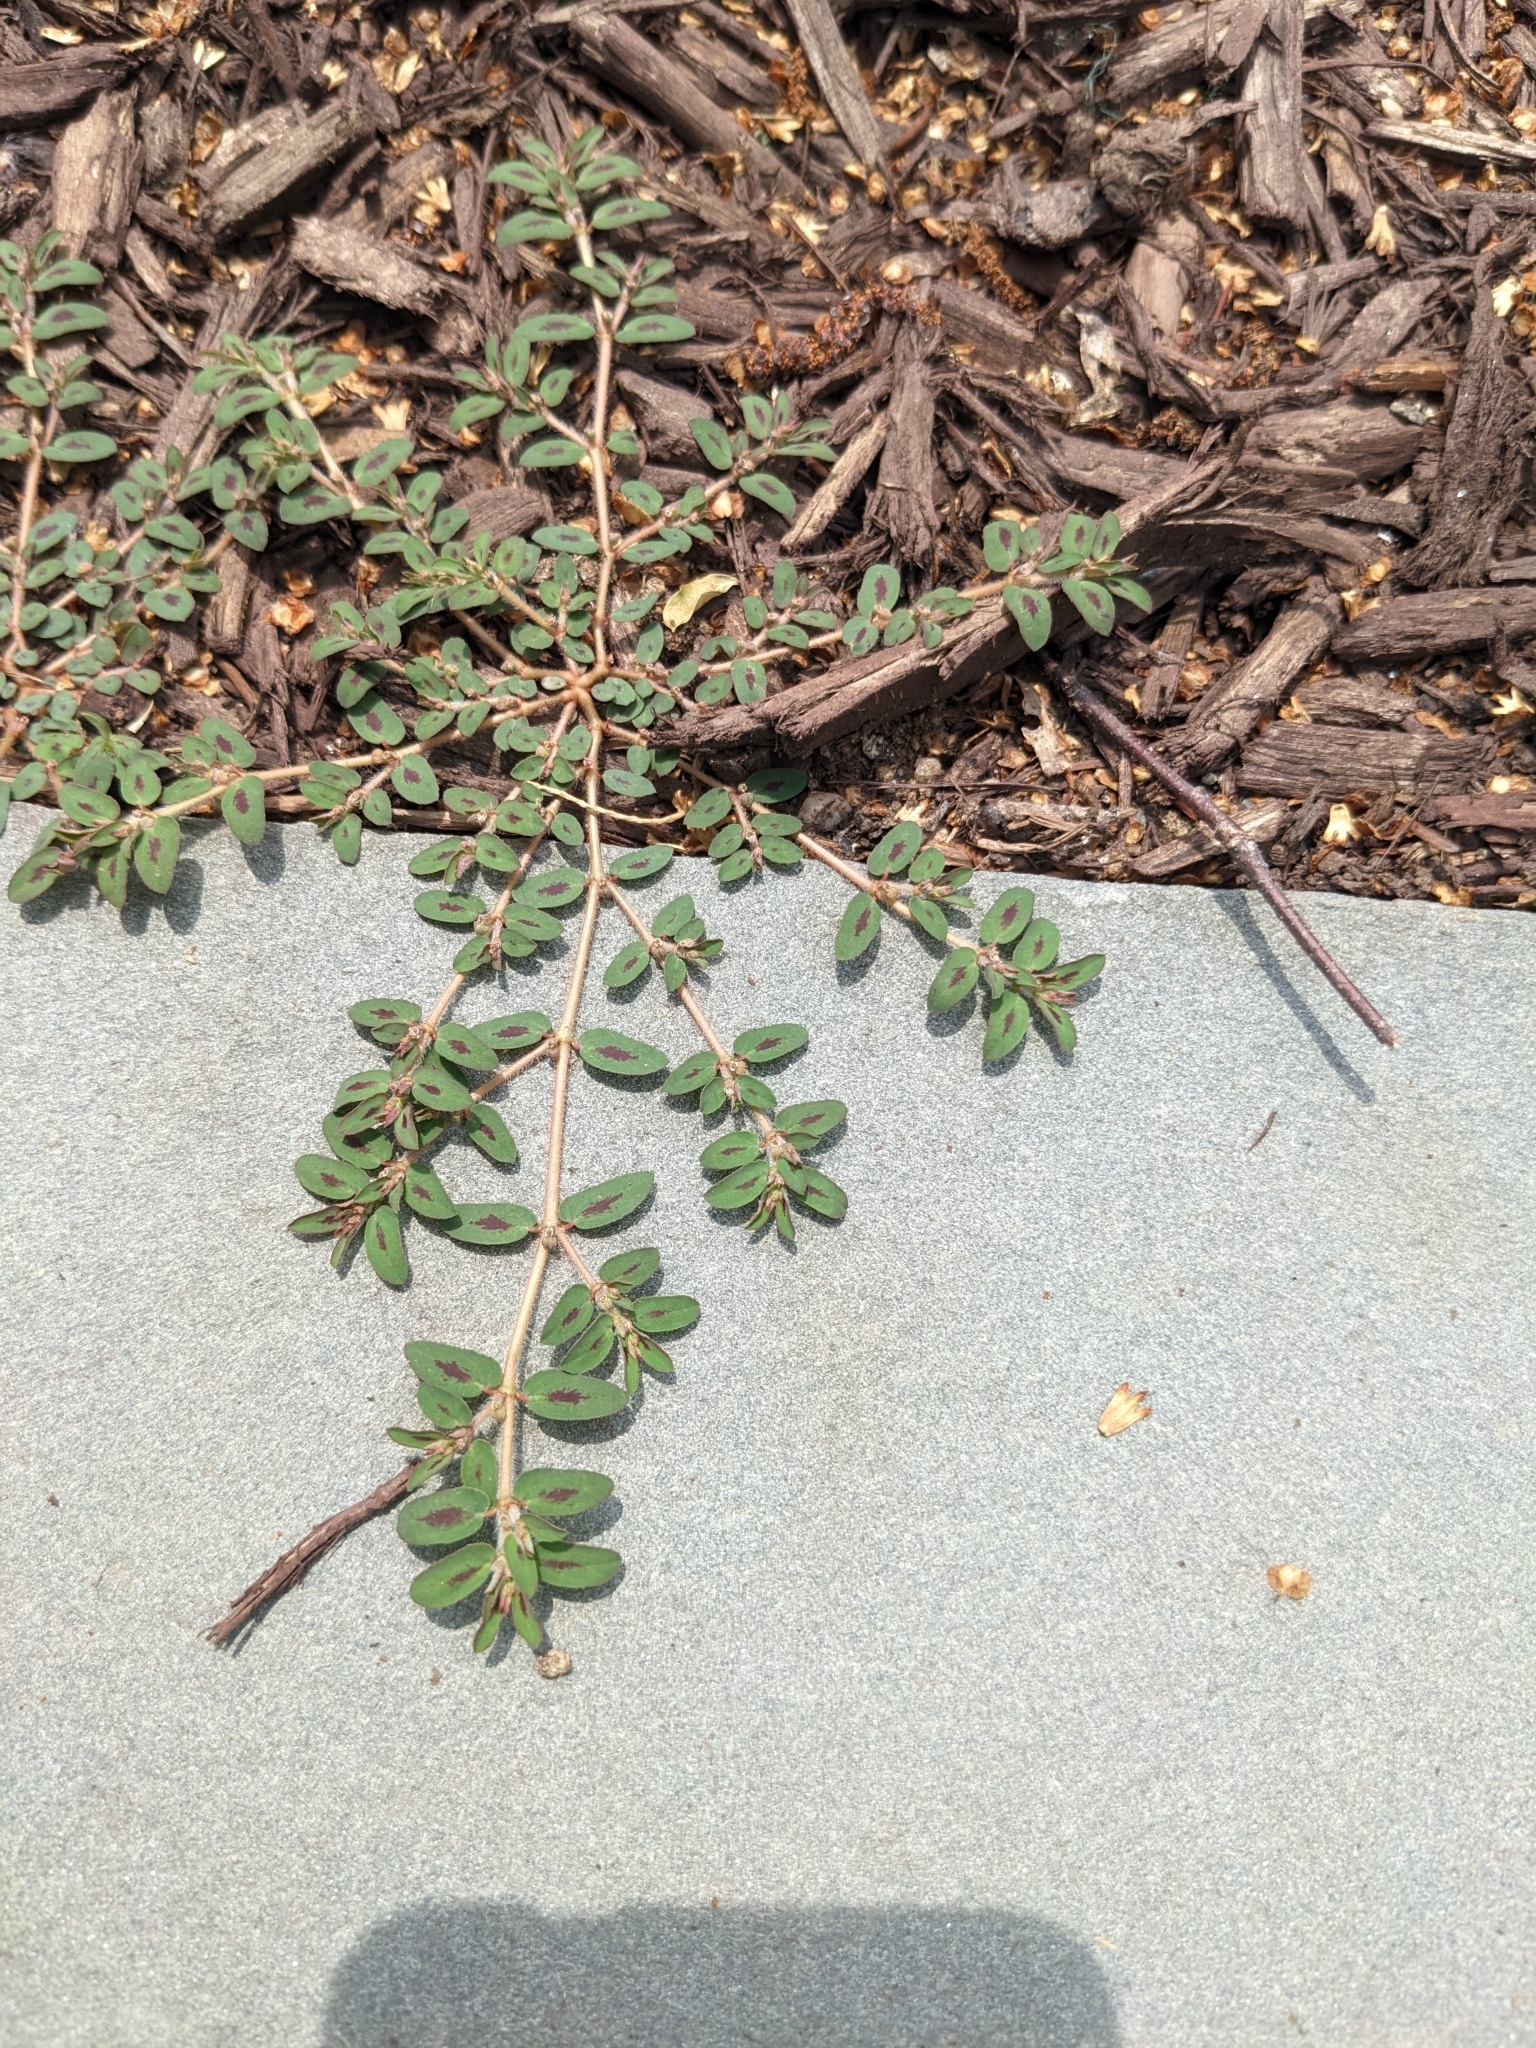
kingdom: Plantae
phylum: Tracheophyta
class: Magnoliopsida
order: Malpighiales
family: Euphorbiaceae
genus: Euphorbia
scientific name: Euphorbia maculata
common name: Spotted spurge
